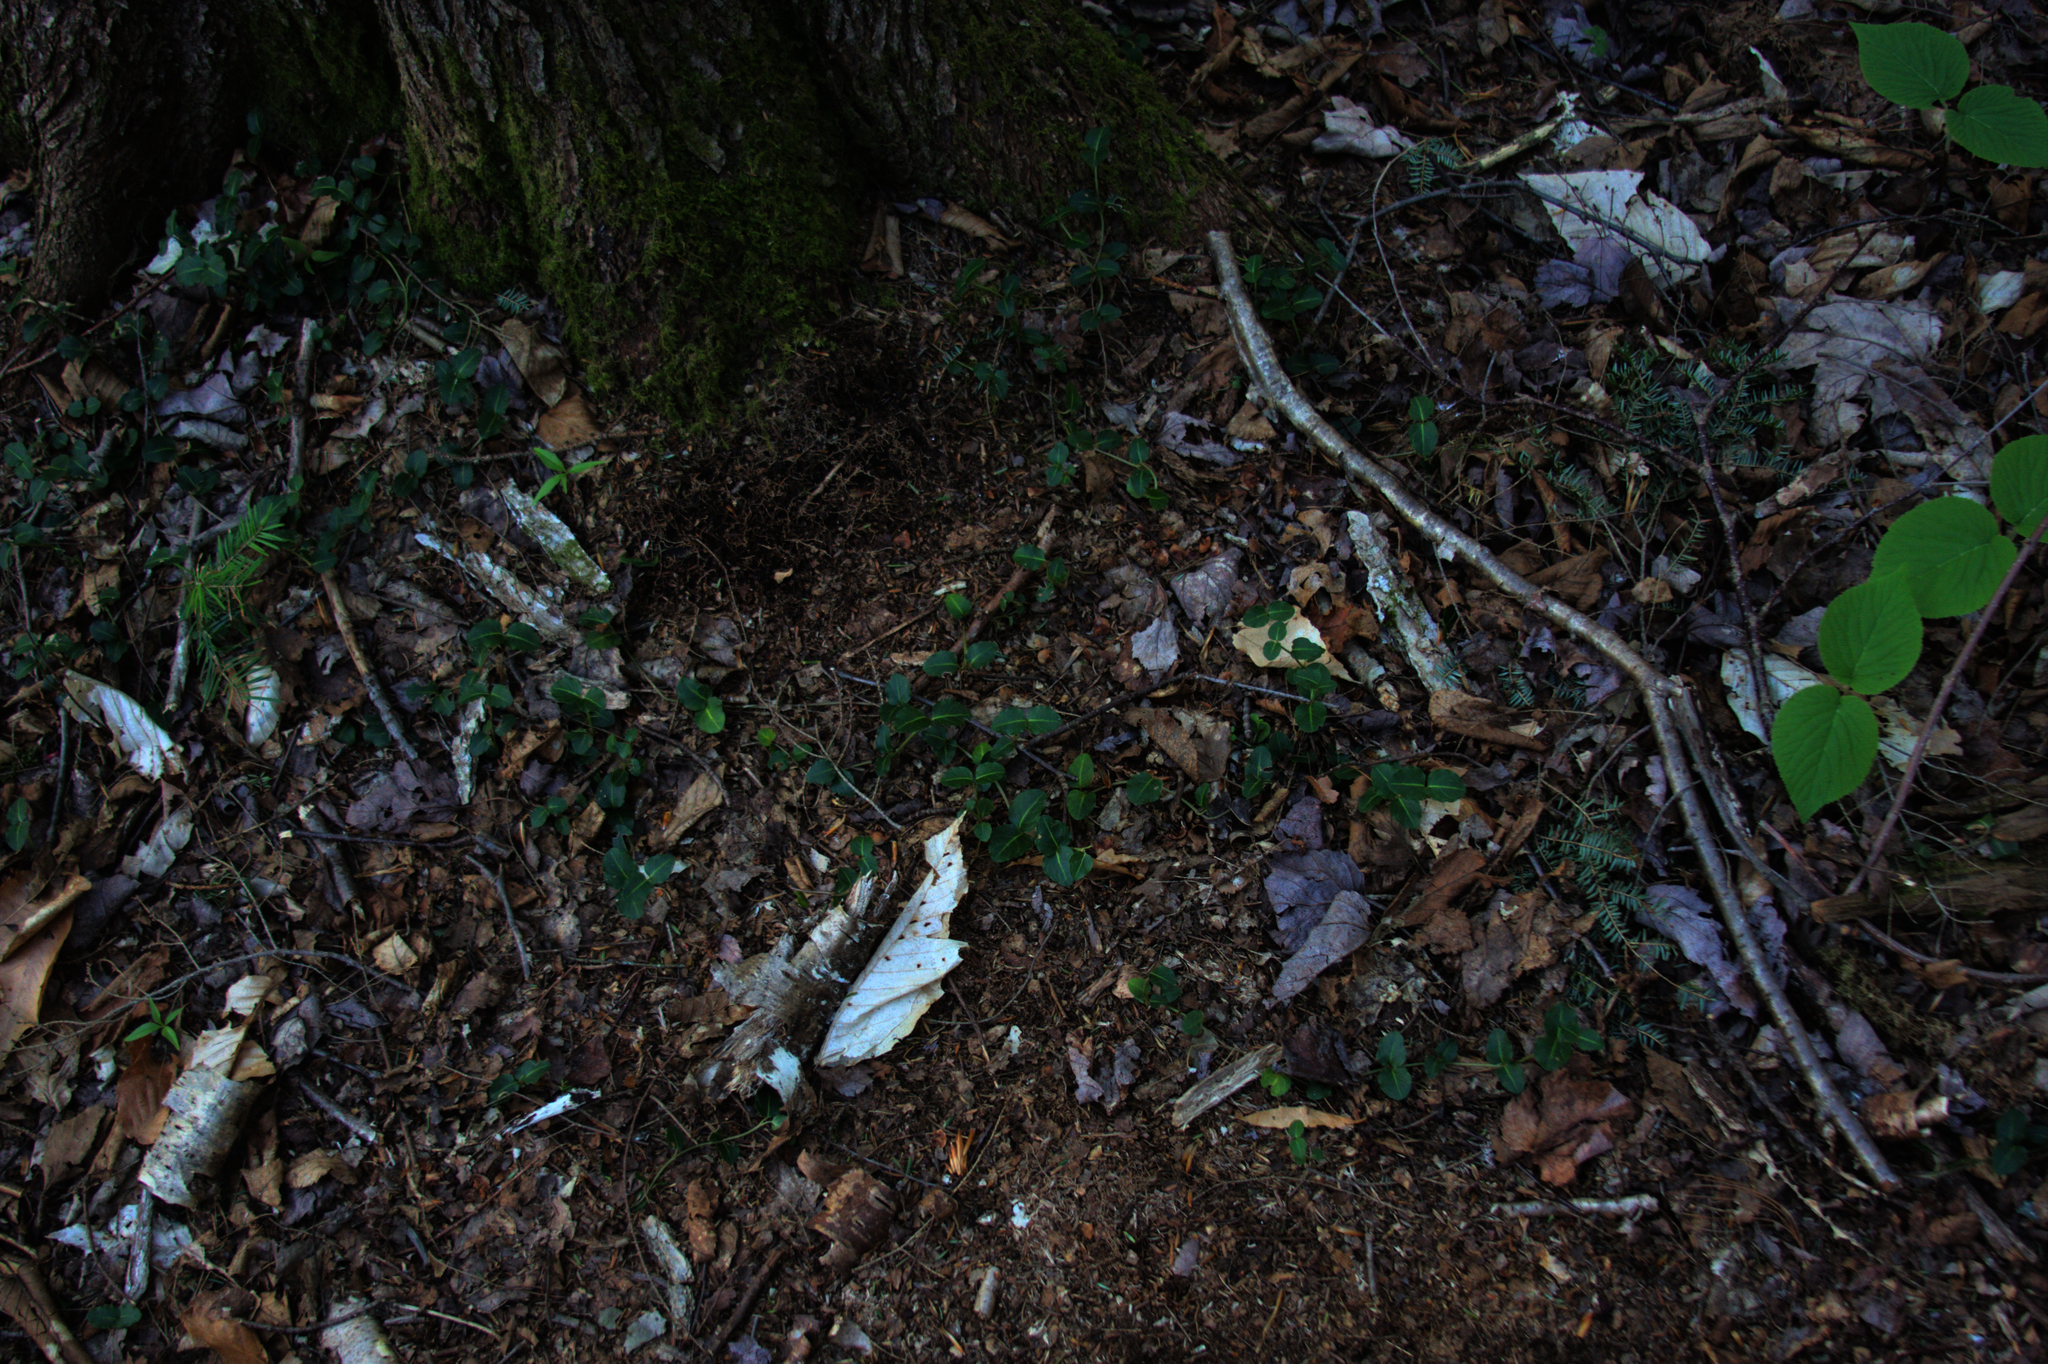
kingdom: Plantae
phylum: Tracheophyta
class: Magnoliopsida
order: Gentianales
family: Rubiaceae
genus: Mitchella
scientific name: Mitchella repens
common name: Partridge-berry
